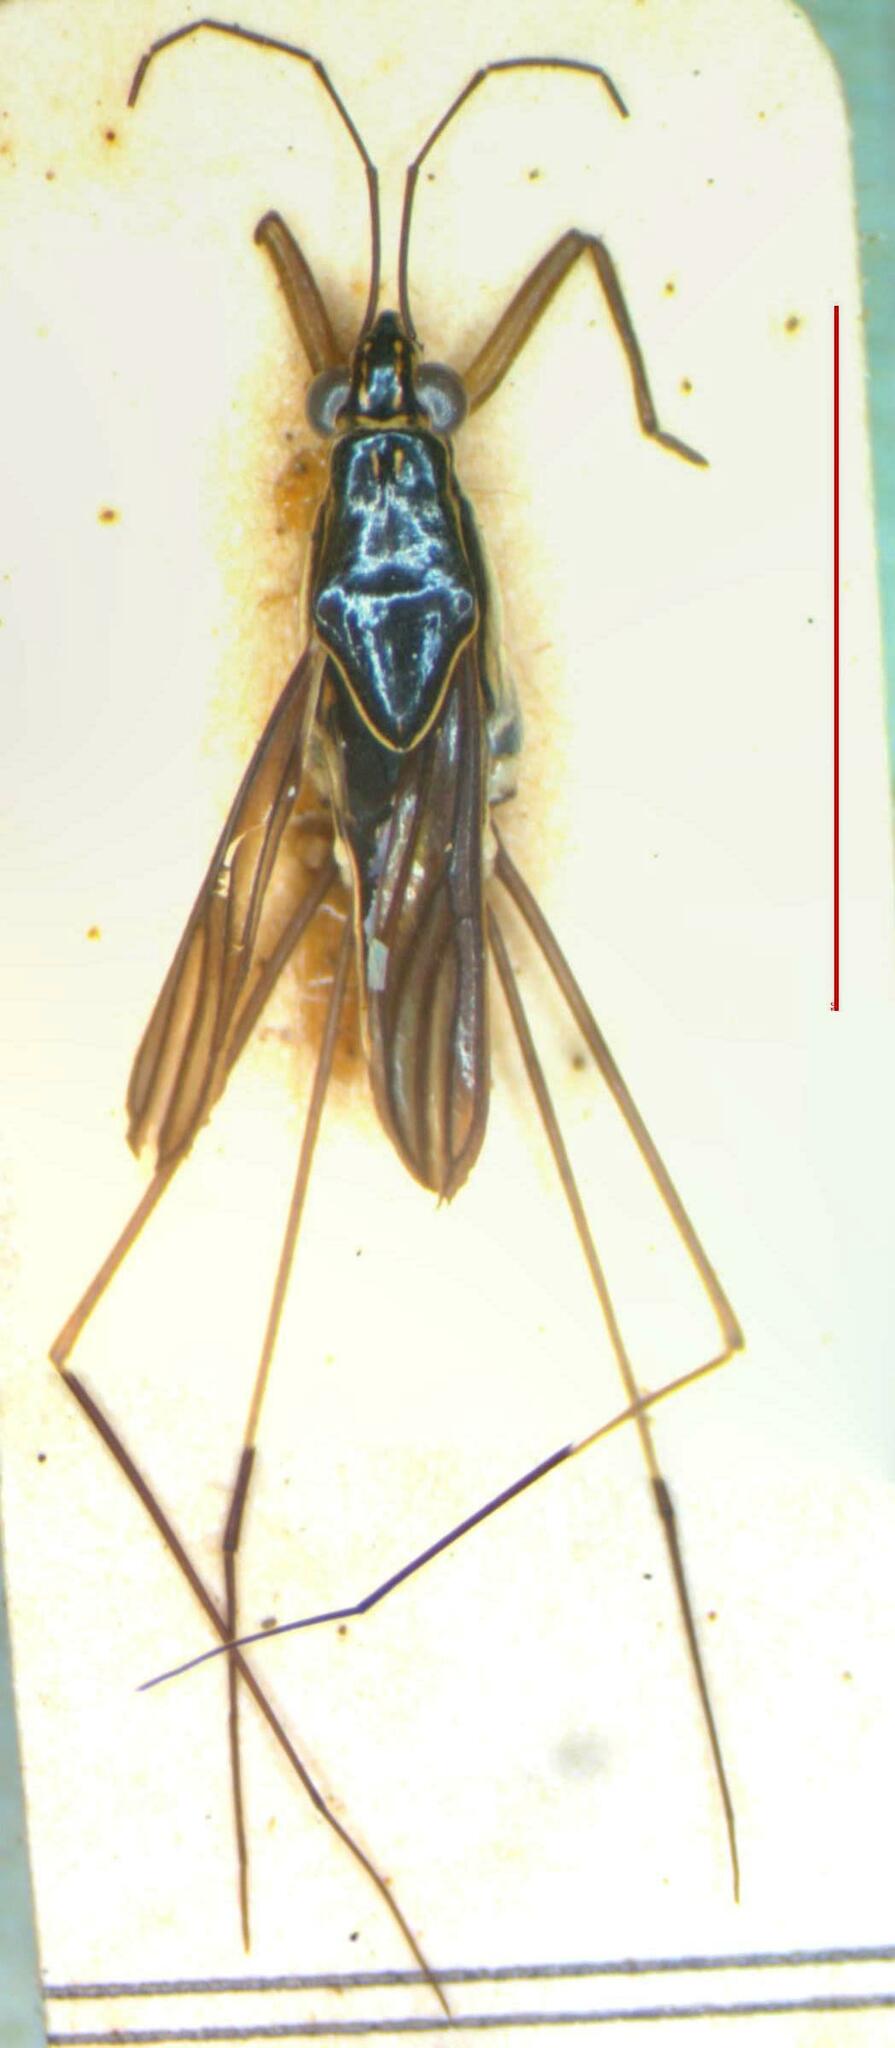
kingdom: Animalia
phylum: Arthropoda
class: Insecta
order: Hemiptera
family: Gerridae
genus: Limnogonus
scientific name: Limnogonus cereiventris
